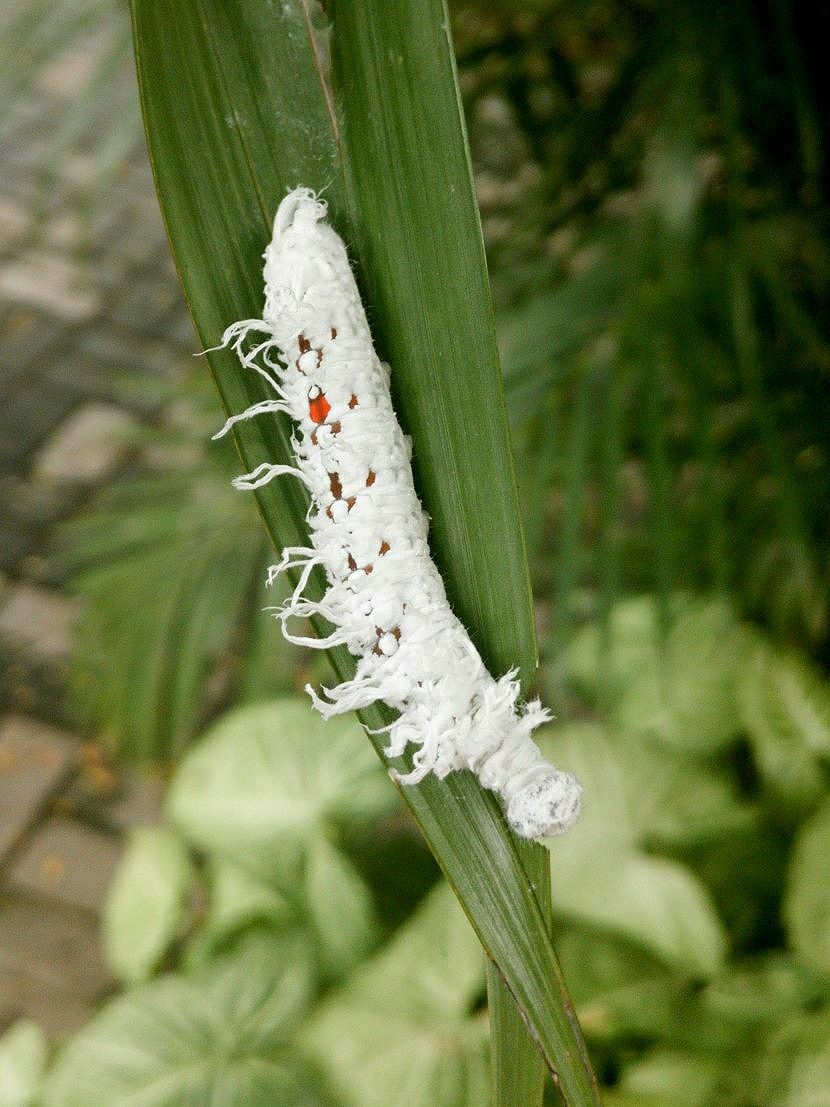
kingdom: Animalia
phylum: Arthropoda
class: Insecta
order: Lepidoptera
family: Hesperiidae
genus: Gangara
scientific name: Gangara thyrsis
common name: Giant redeye
